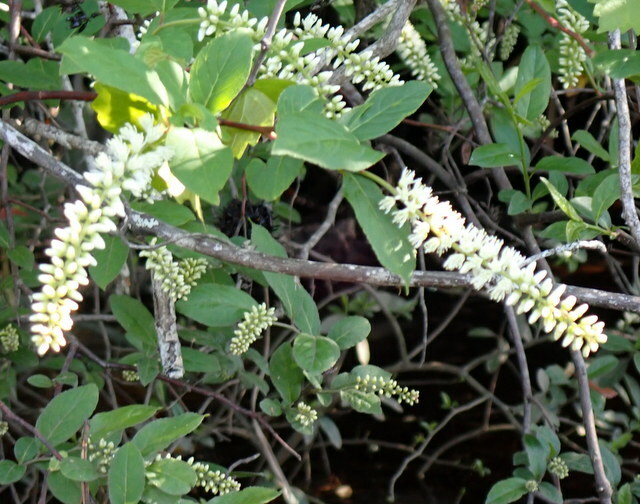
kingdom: Plantae
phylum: Tracheophyta
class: Magnoliopsida
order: Saxifragales
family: Iteaceae
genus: Itea
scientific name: Itea virginica
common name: Sweetspire
